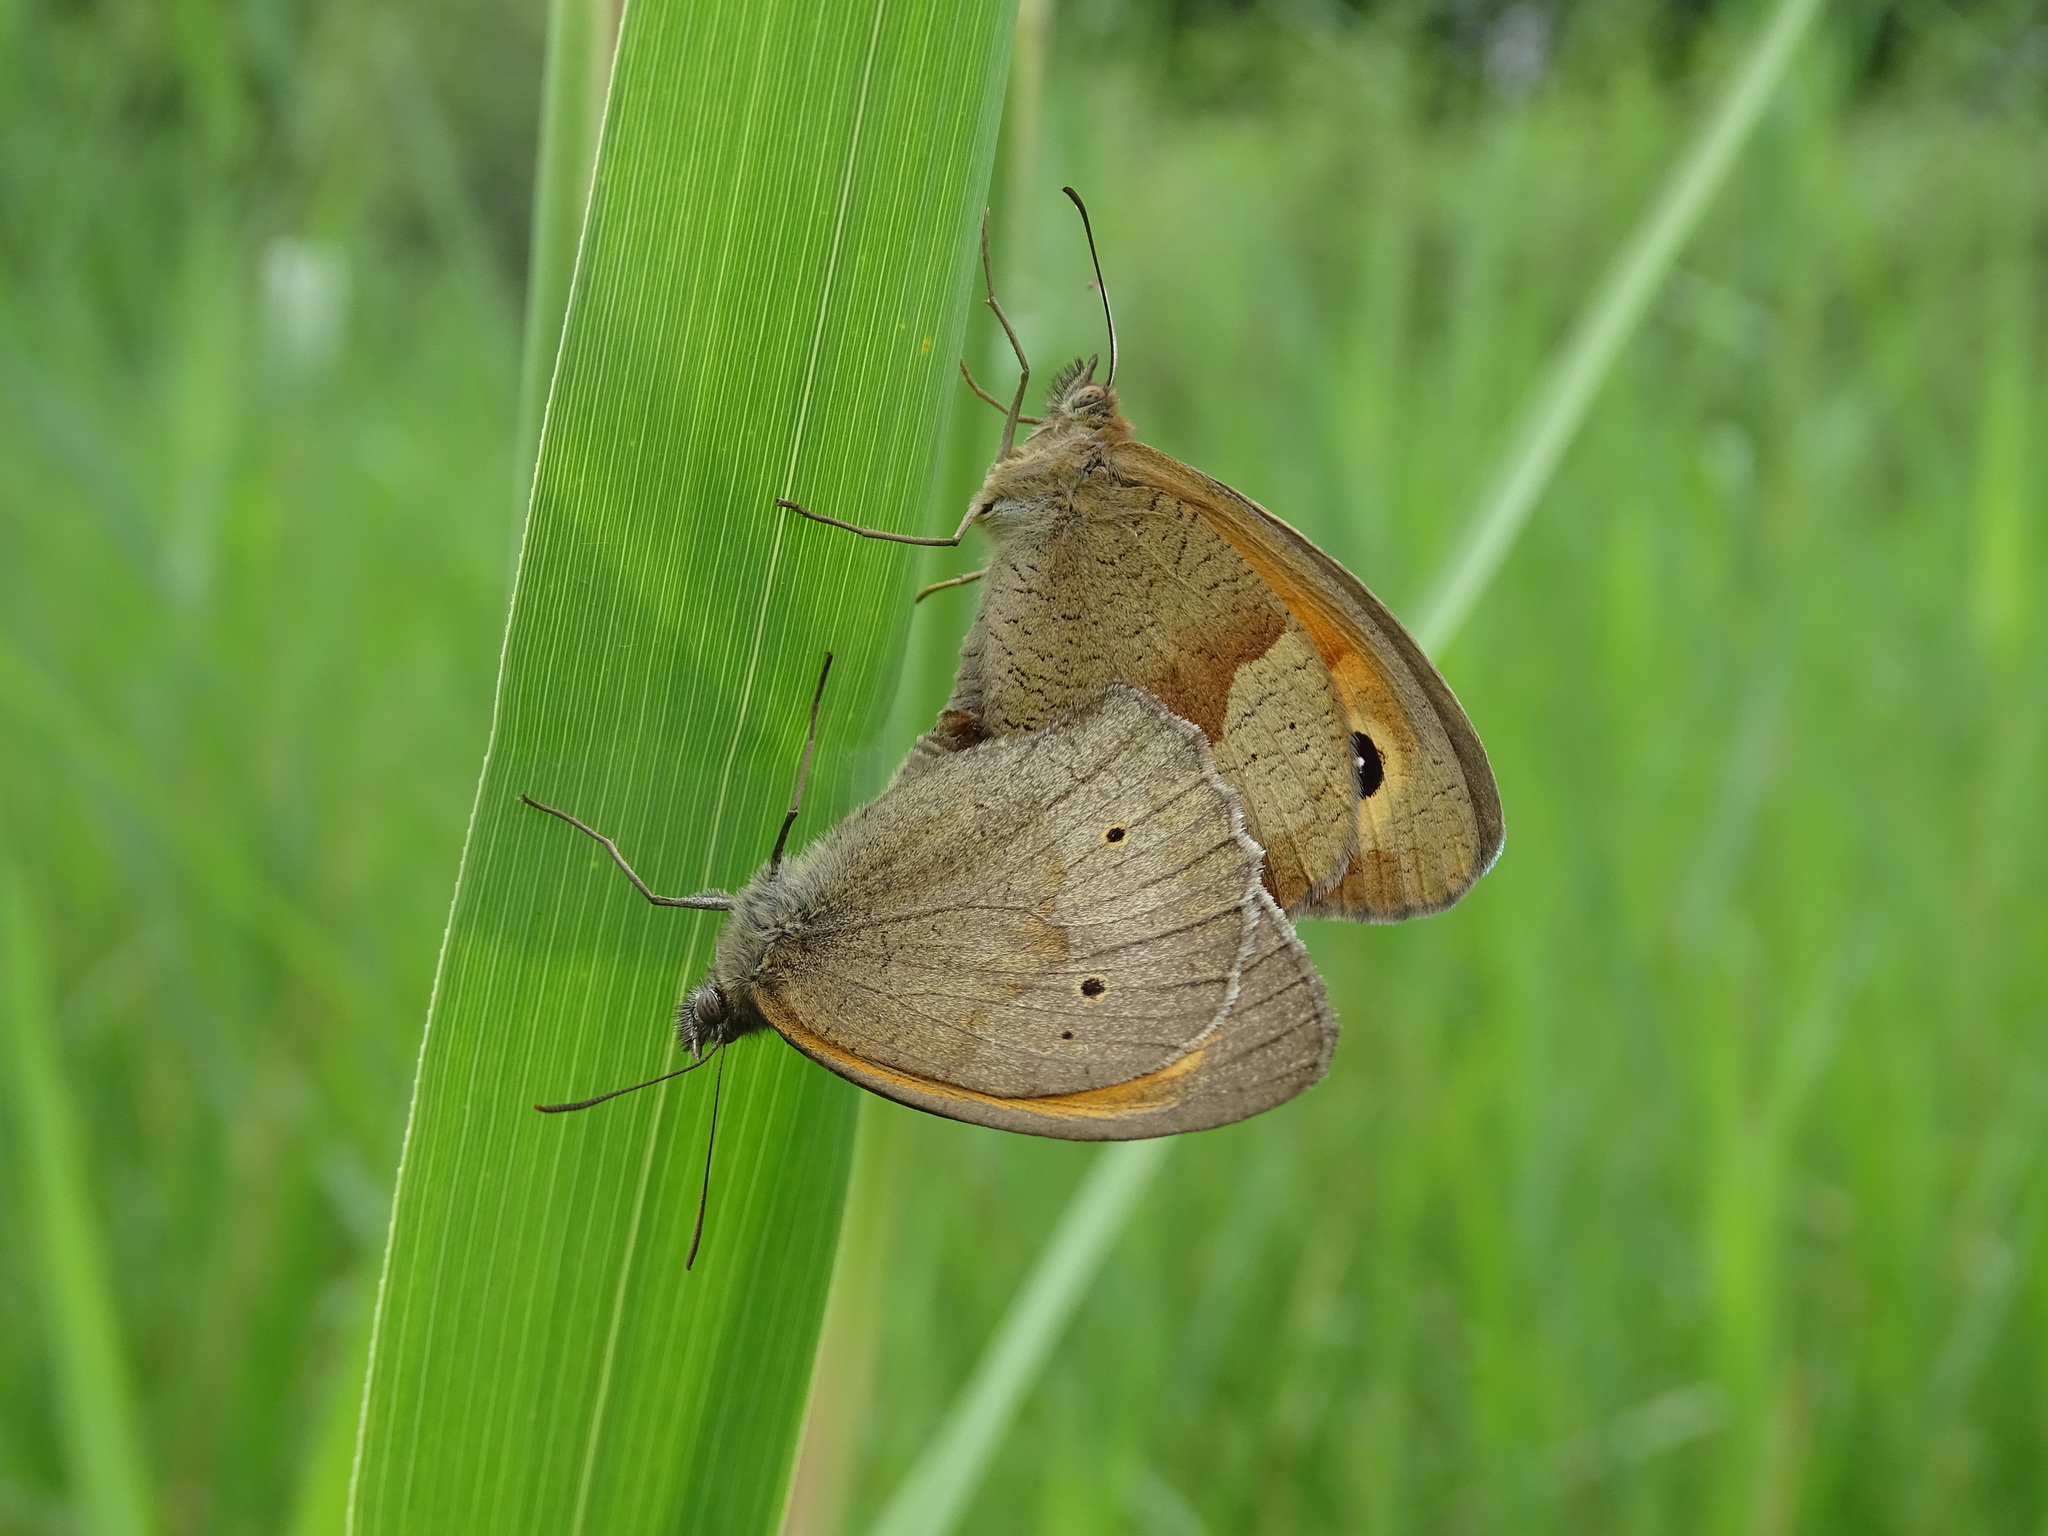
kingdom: Animalia
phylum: Arthropoda
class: Insecta
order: Lepidoptera
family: Nymphalidae
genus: Maniola
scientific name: Maniola jurtina
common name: Meadow brown
